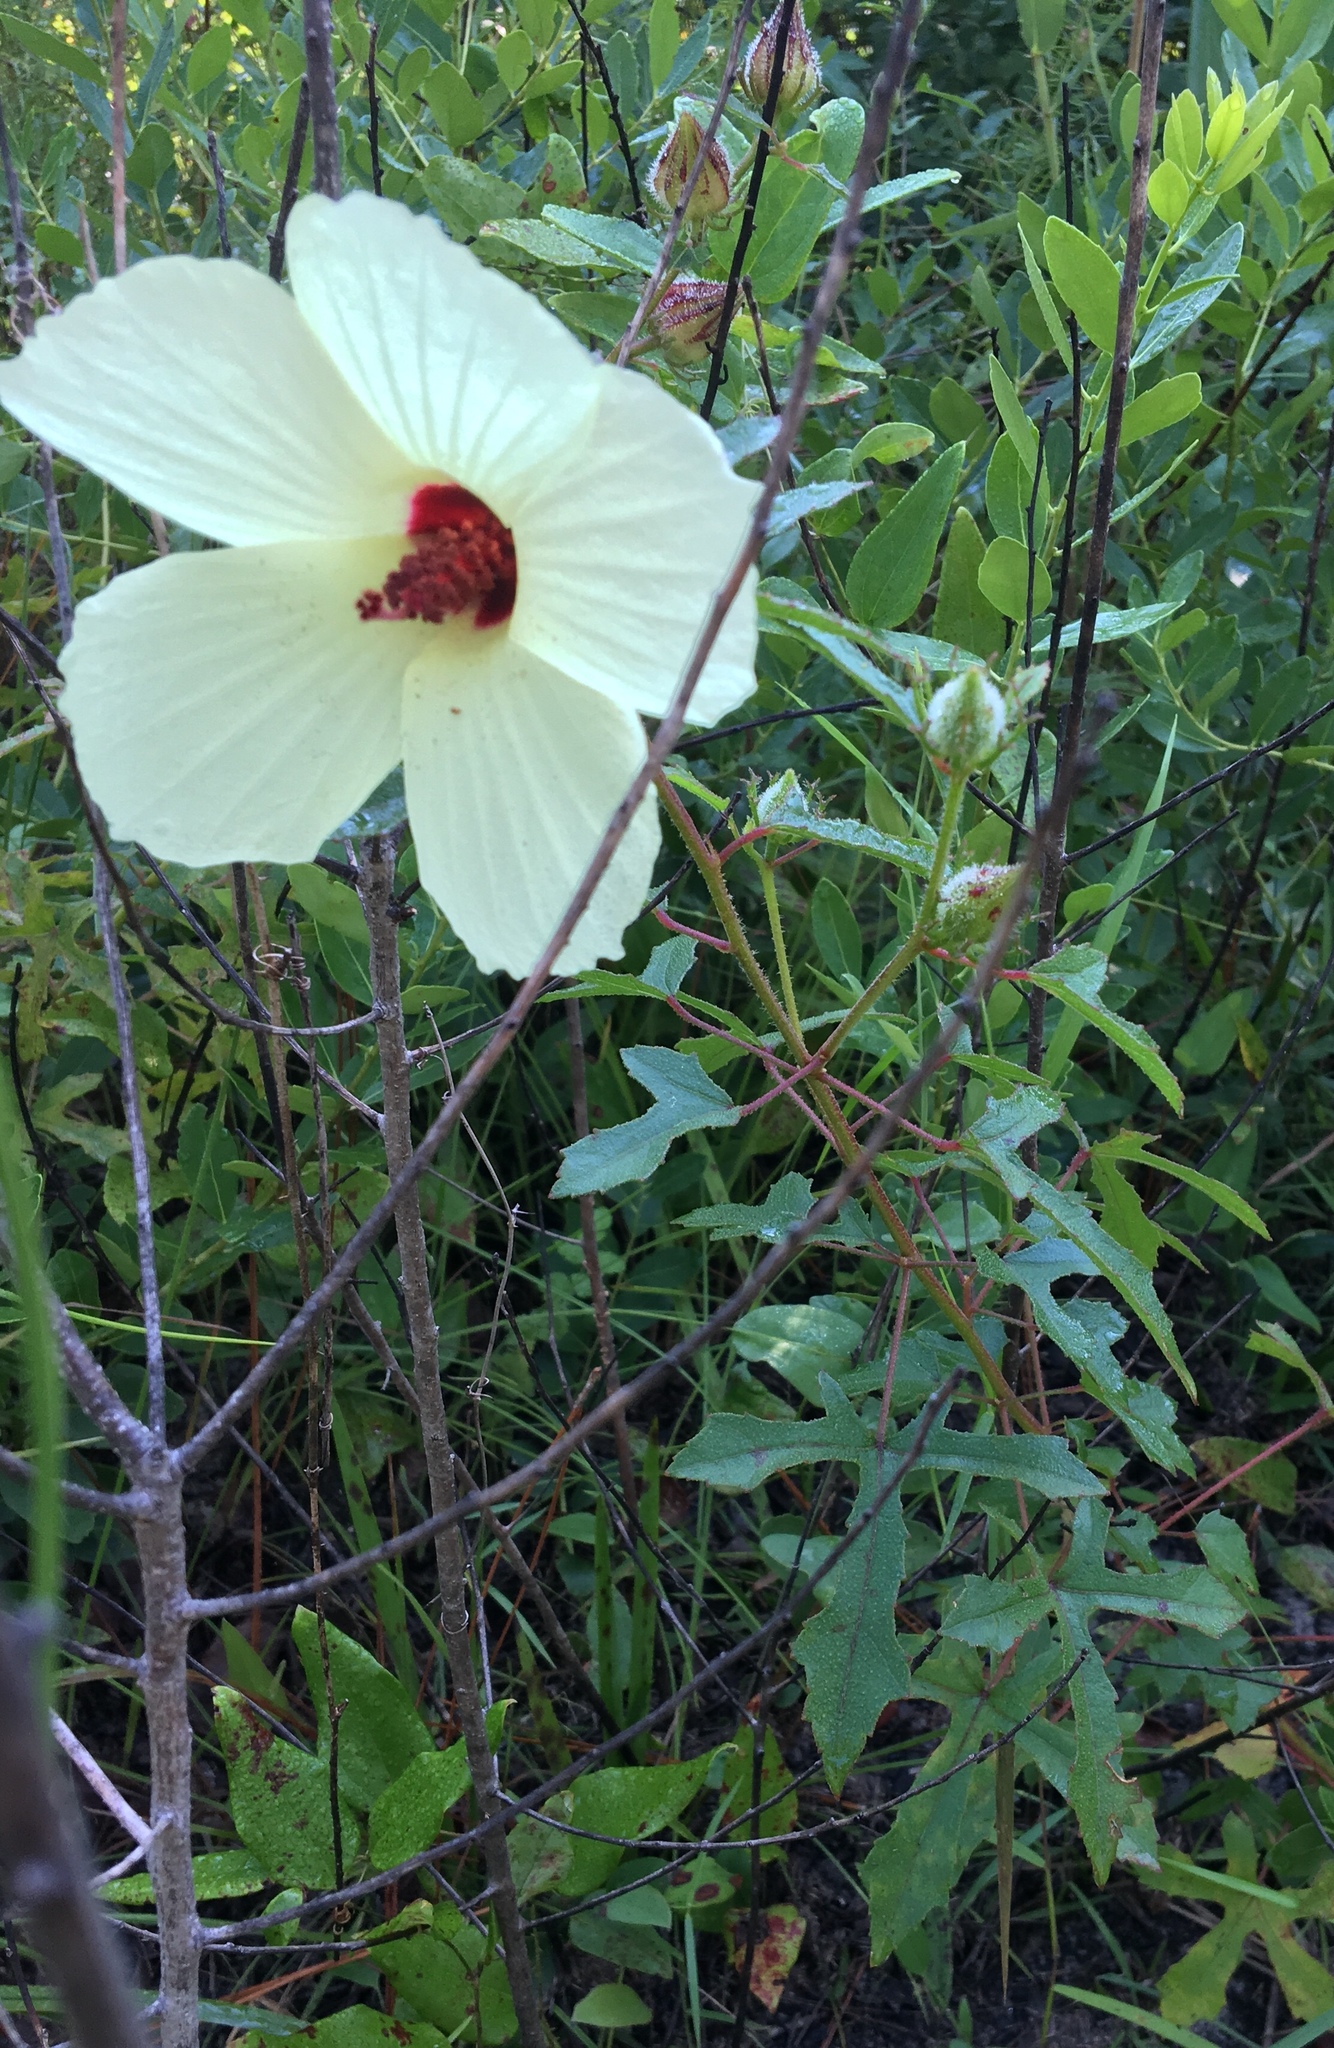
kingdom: Plantae
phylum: Tracheophyta
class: Magnoliopsida
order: Malvales
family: Malvaceae
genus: Hibiscus
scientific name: Hibiscus aculeatus
